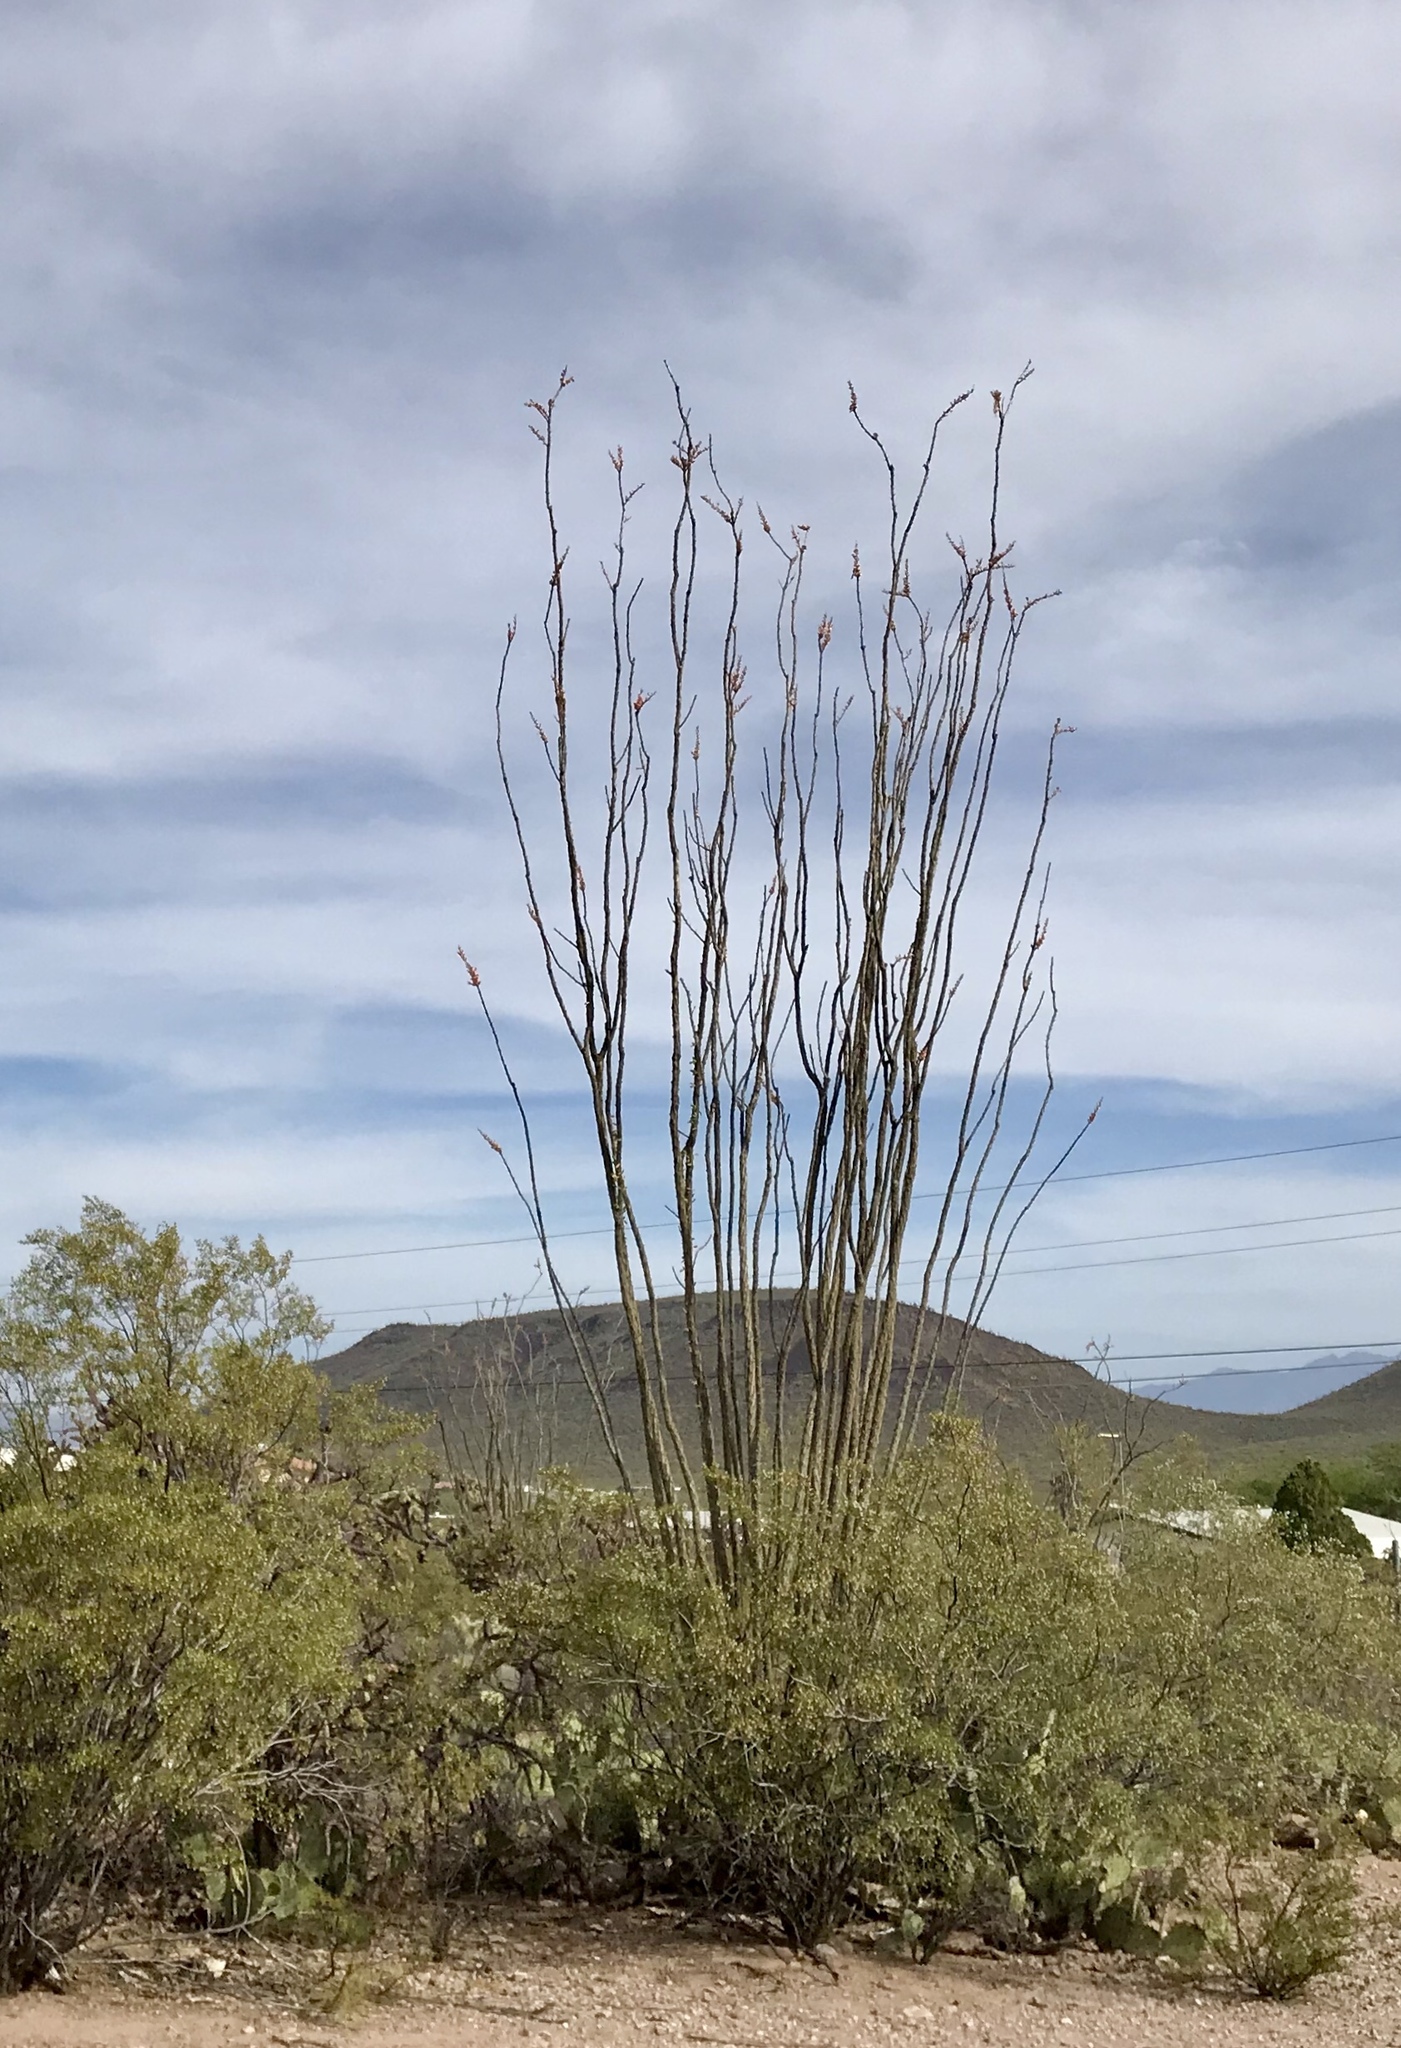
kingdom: Plantae
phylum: Tracheophyta
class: Magnoliopsida
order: Ericales
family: Fouquieriaceae
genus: Fouquieria
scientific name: Fouquieria splendens
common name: Vine-cactus
